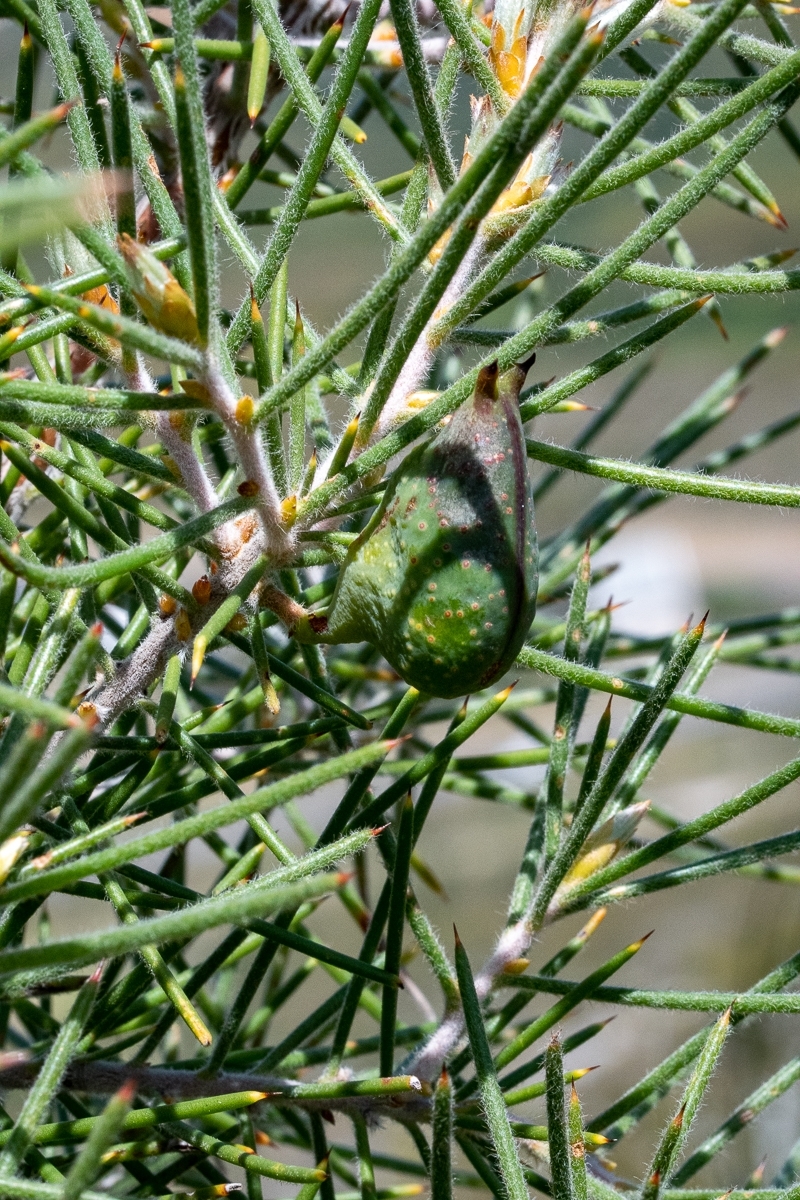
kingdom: Plantae
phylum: Tracheophyta
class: Magnoliopsida
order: Proteales
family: Proteaceae
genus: Hakea
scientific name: Hakea gibbosa
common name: Rock hakea
